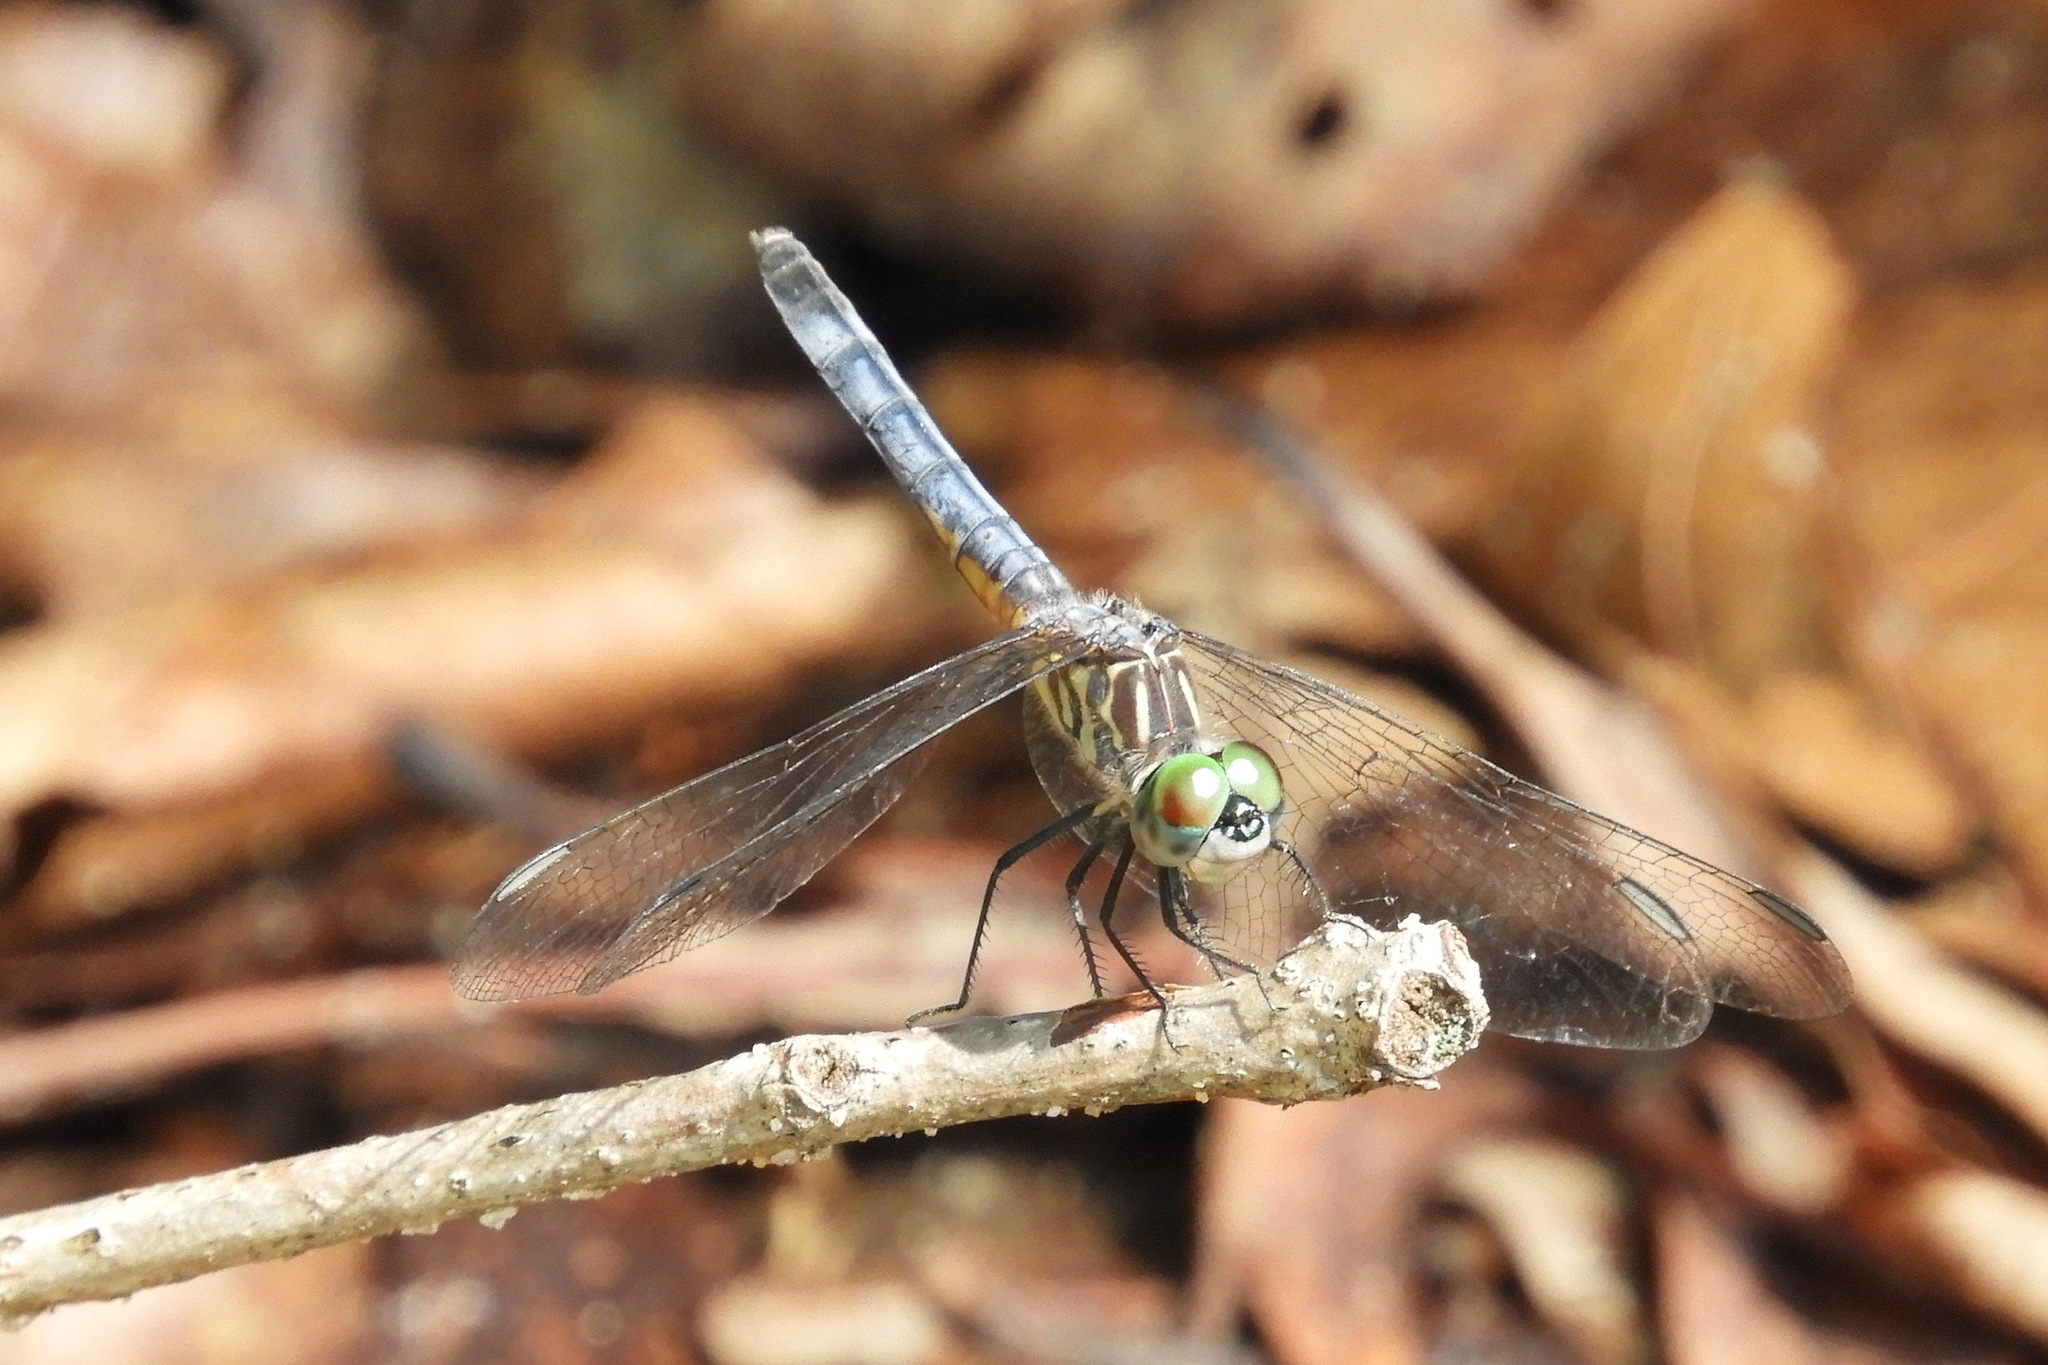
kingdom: Animalia
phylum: Arthropoda
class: Insecta
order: Odonata
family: Libellulidae
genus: Pachydiplax
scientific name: Pachydiplax longipennis
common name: Blue dasher
